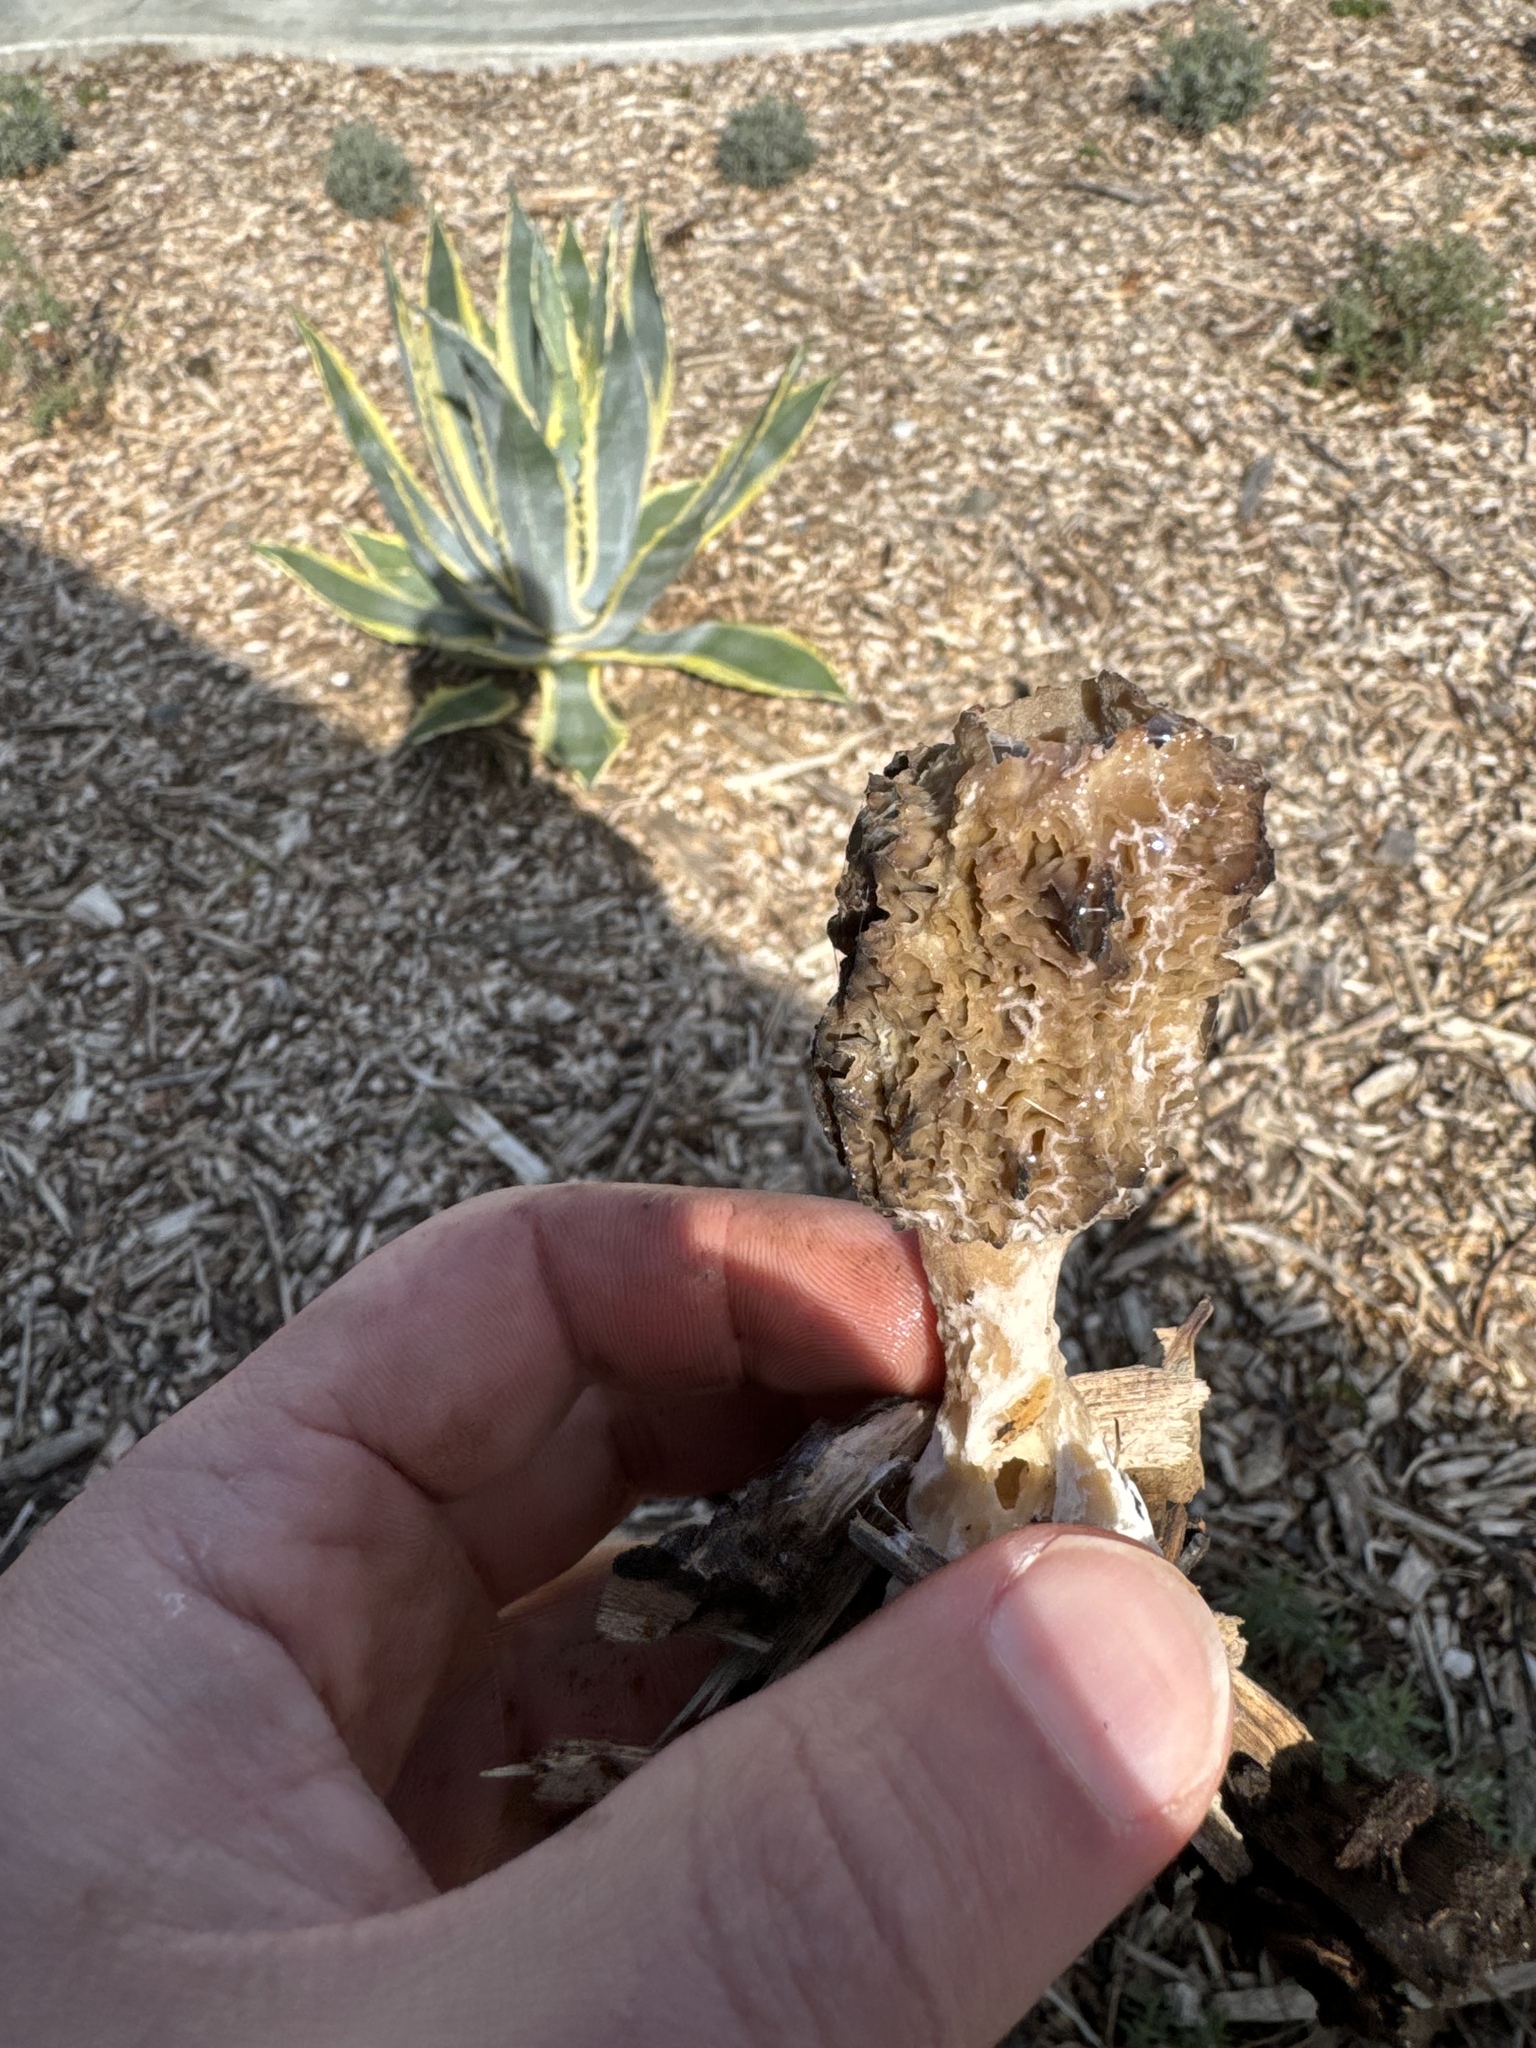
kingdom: Fungi
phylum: Ascomycota
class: Pezizomycetes
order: Pezizales
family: Morchellaceae
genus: Morchella
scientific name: Morchella importuna
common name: Landscaping black morel
